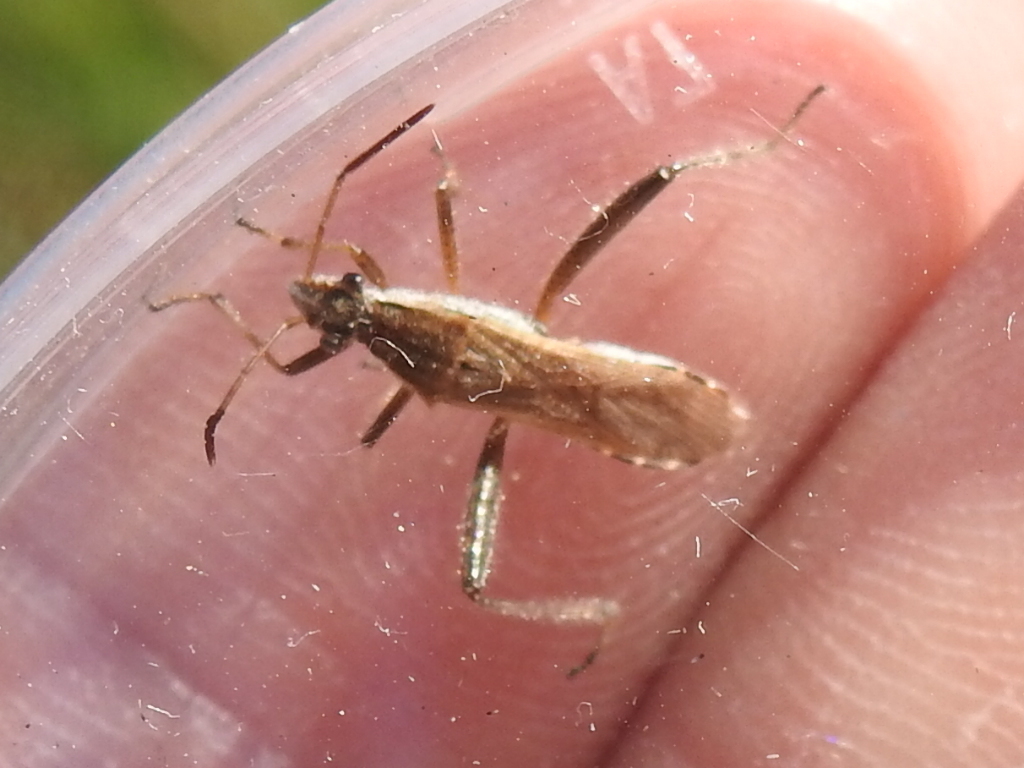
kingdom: Animalia
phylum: Arthropoda
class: Insecta
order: Hemiptera
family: Alydidae
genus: Alydus
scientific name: Alydus pilosulus
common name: Broad-headed bug
